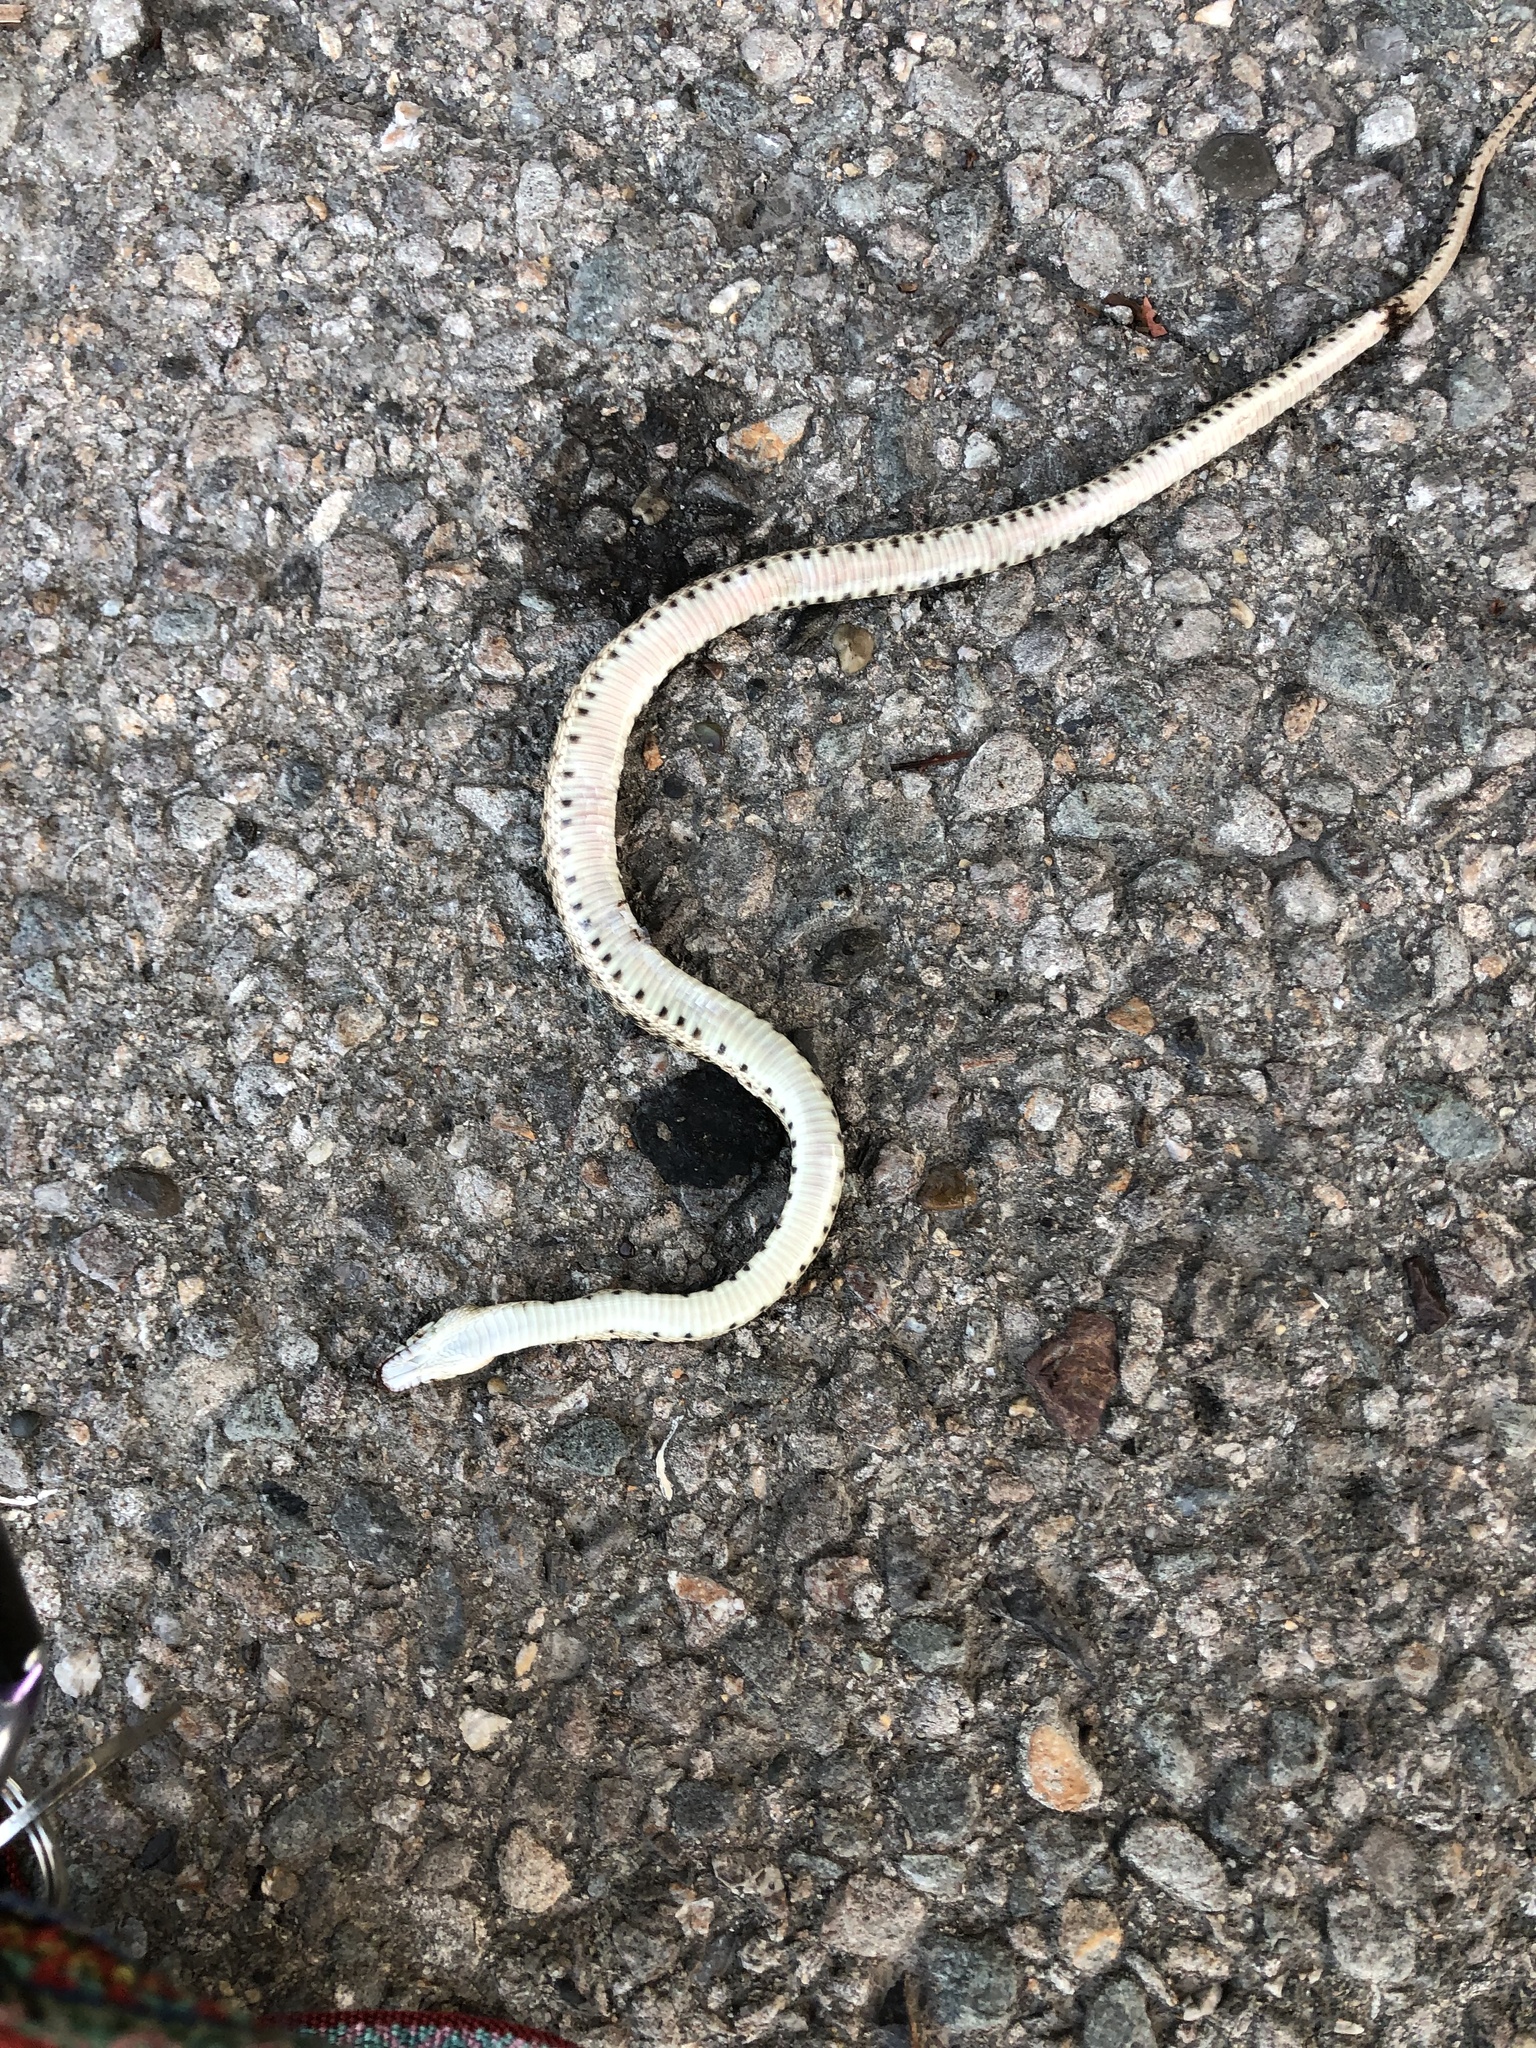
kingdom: Animalia
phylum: Chordata
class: Squamata
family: Colubridae
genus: Pituophis
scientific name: Pituophis catenifer
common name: Gopher snake
